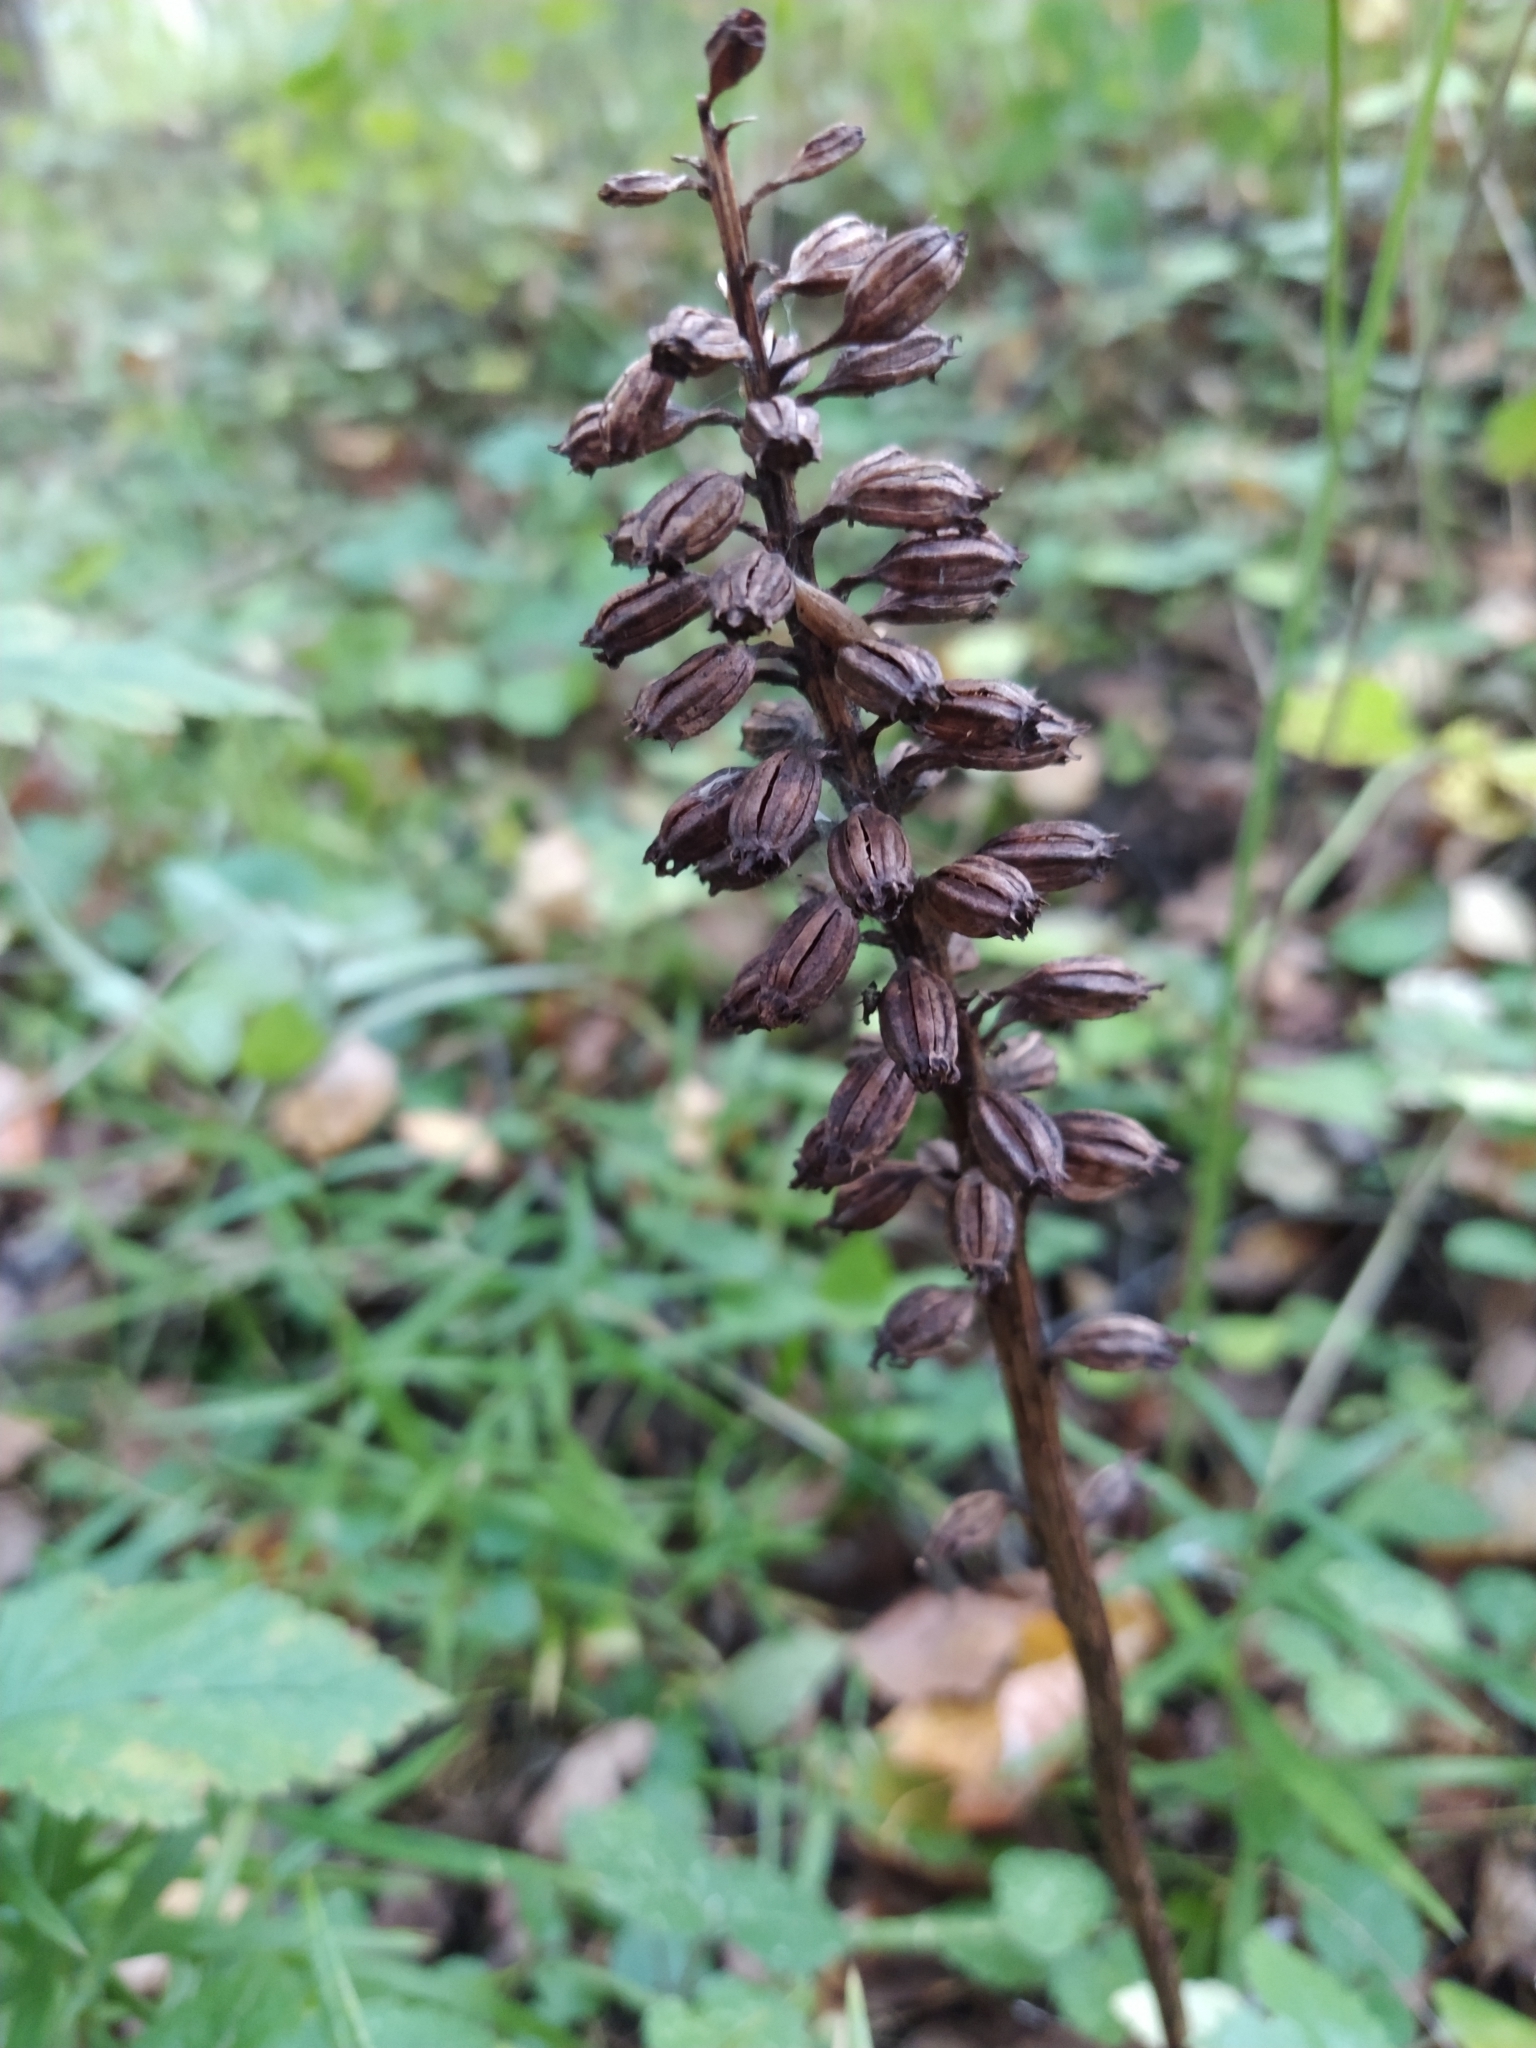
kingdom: Plantae
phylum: Tracheophyta
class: Liliopsida
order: Asparagales
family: Orchidaceae
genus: Neottia
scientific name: Neottia nidus-avis
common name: Bird's-nest orchid
